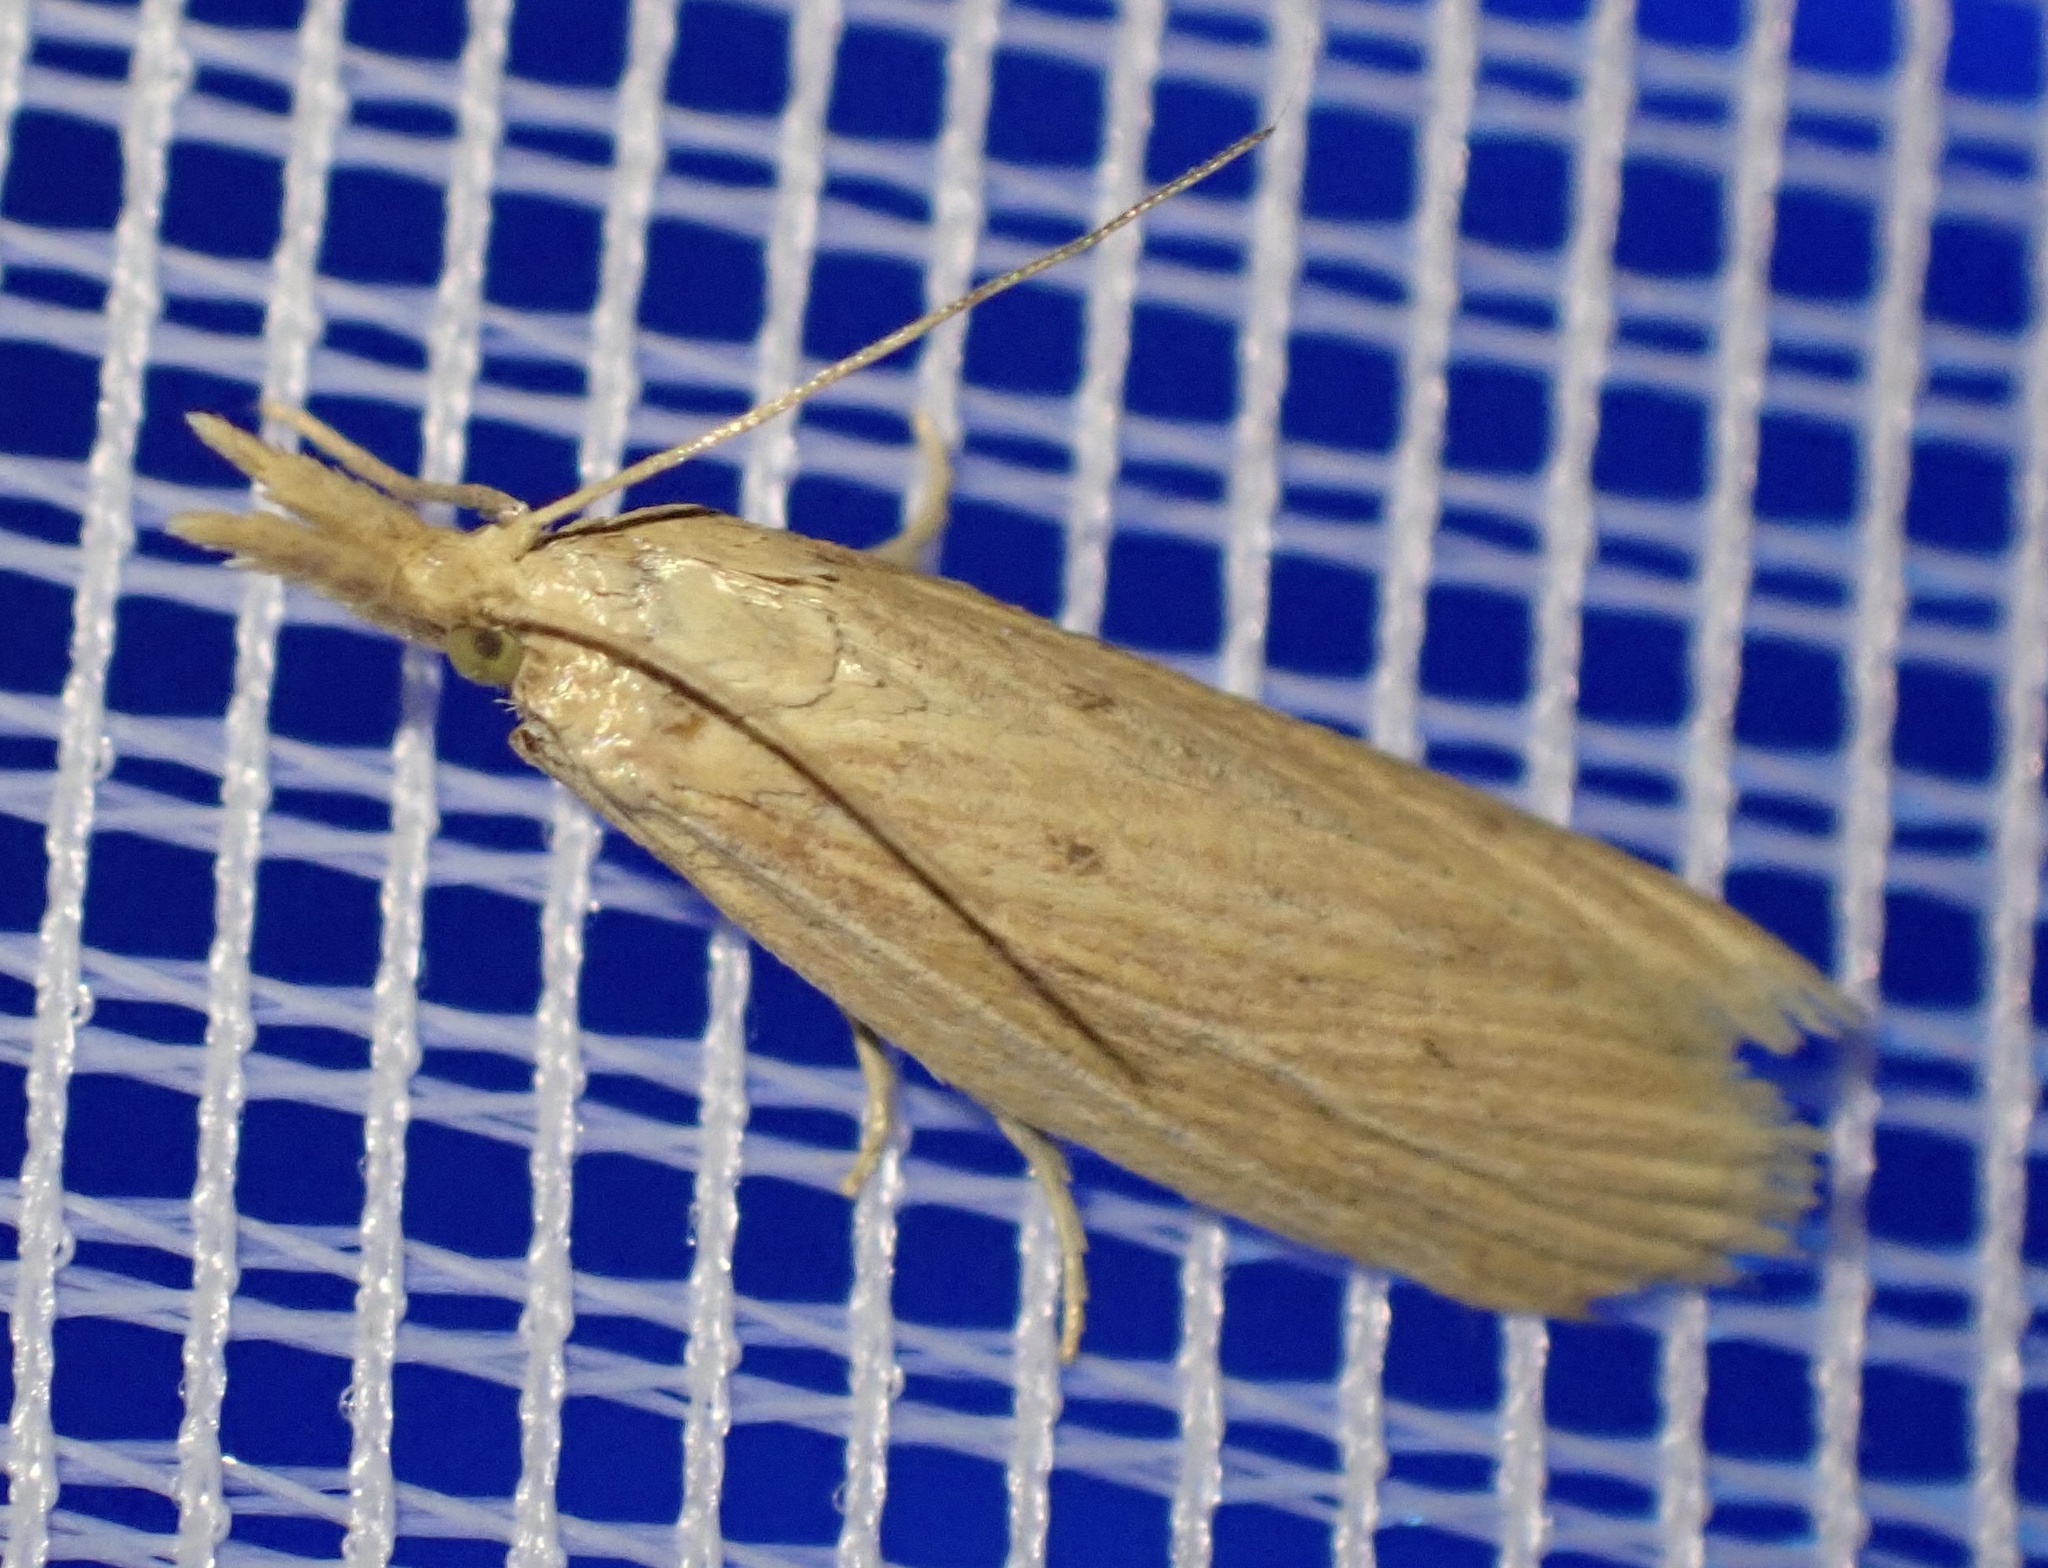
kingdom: Animalia
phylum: Arthropoda
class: Insecta
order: Lepidoptera
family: Pyralidae
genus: Ematheudes
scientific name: Ematheudes punctellus
